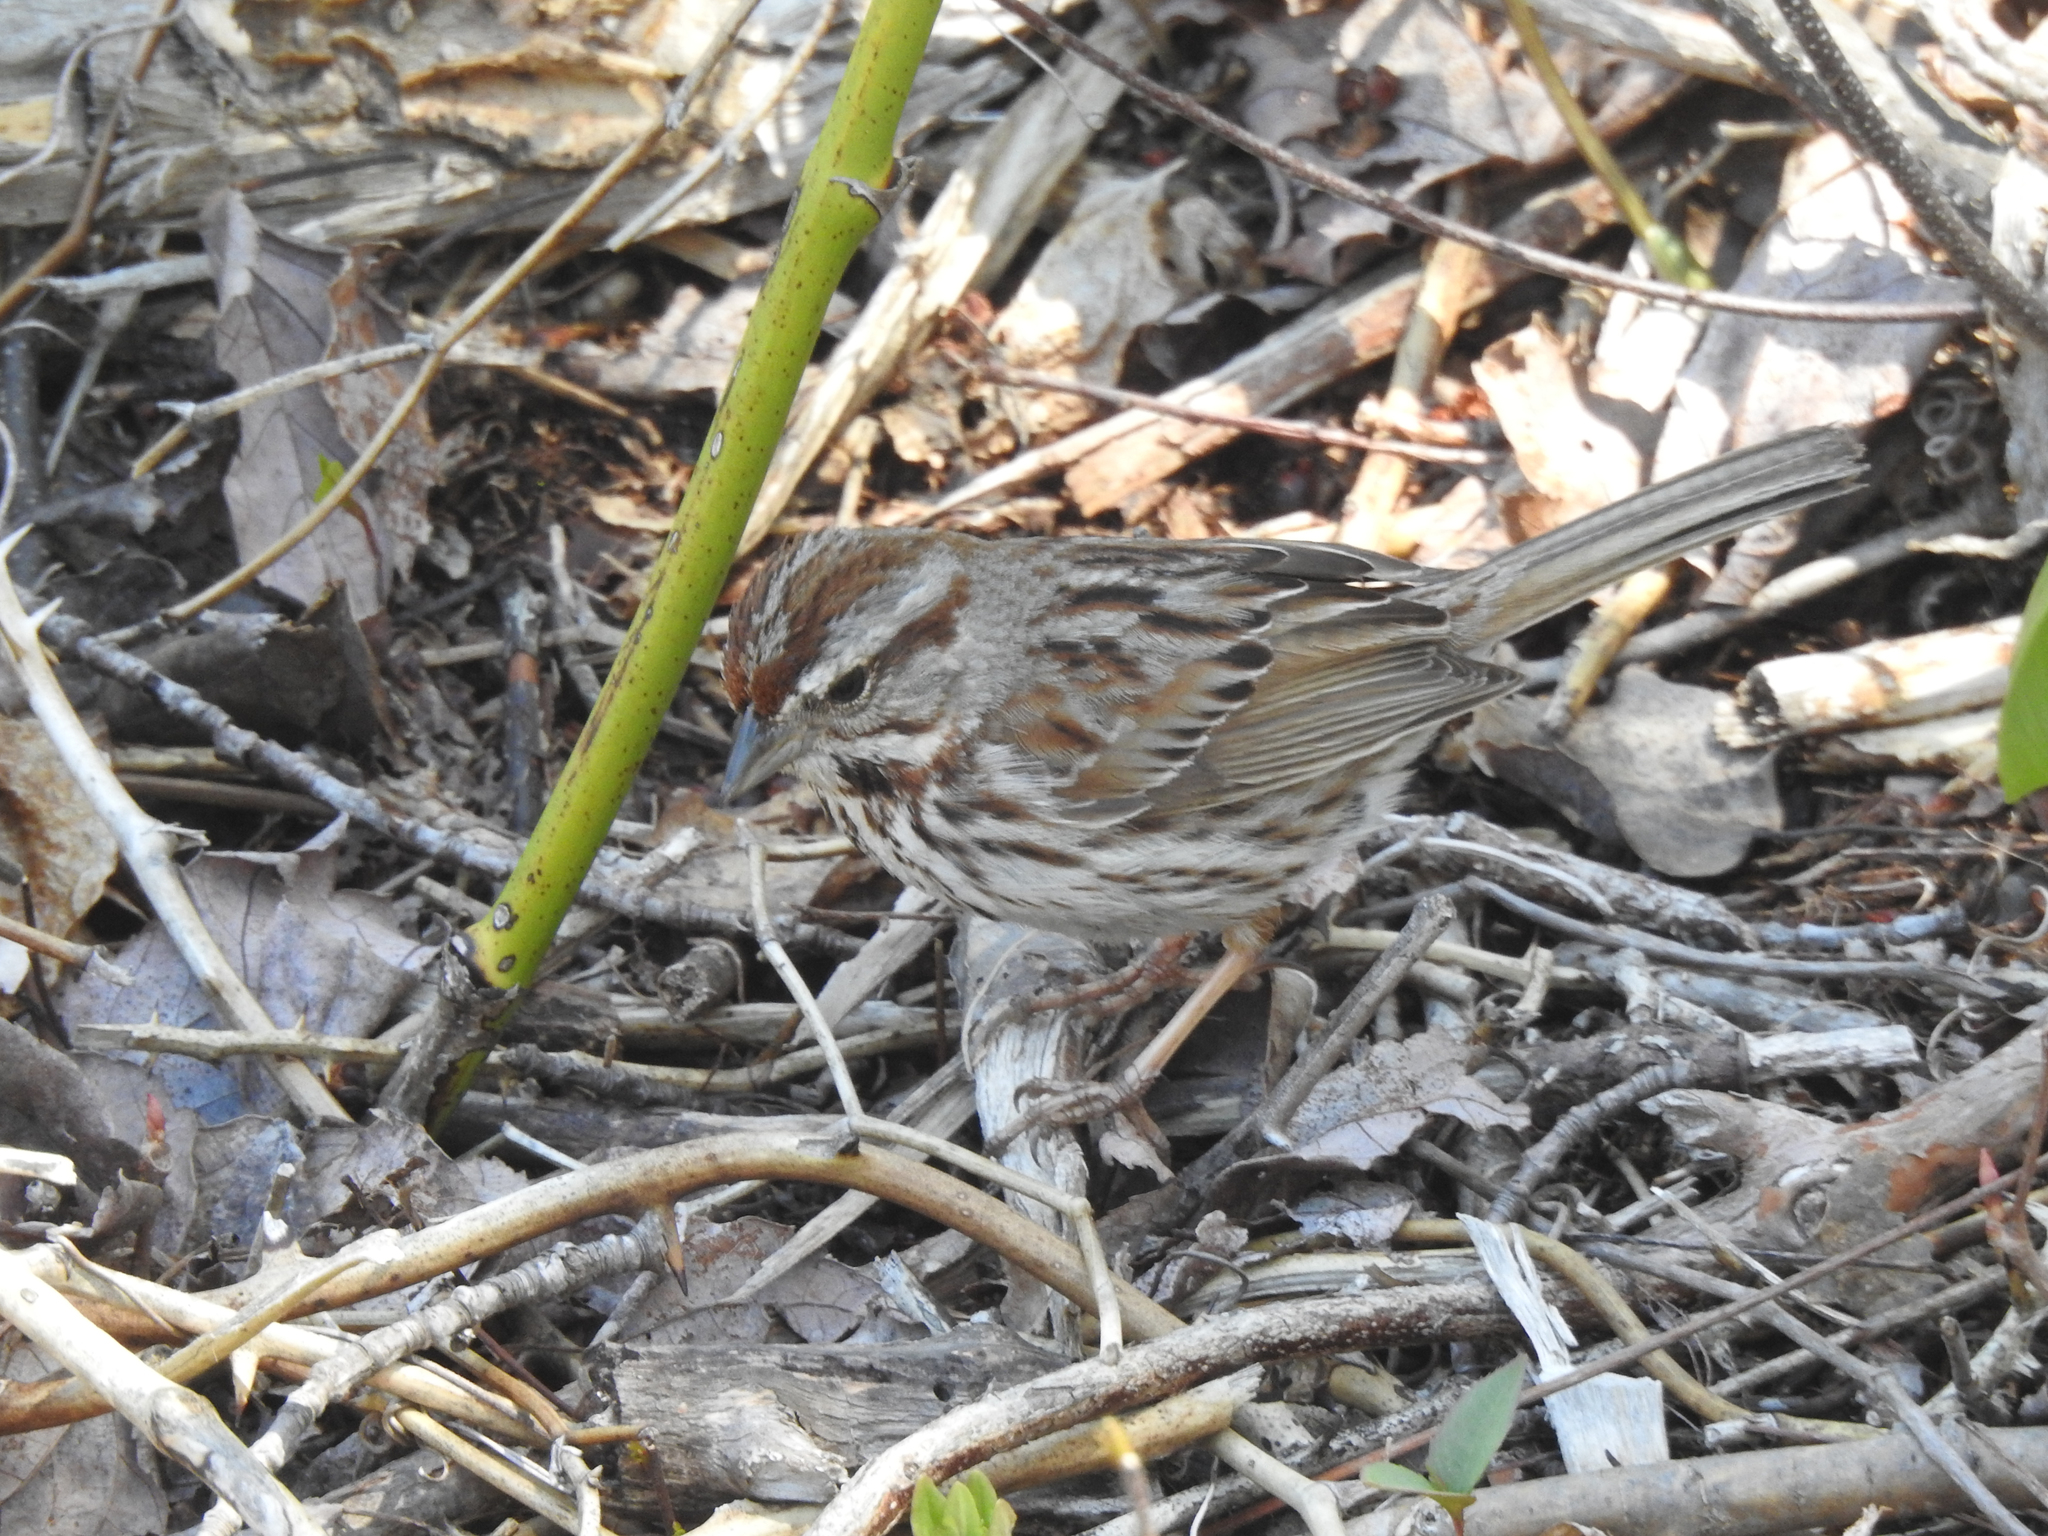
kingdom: Animalia
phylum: Chordata
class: Aves
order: Passeriformes
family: Passerellidae
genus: Melospiza
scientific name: Melospiza melodia
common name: Song sparrow
